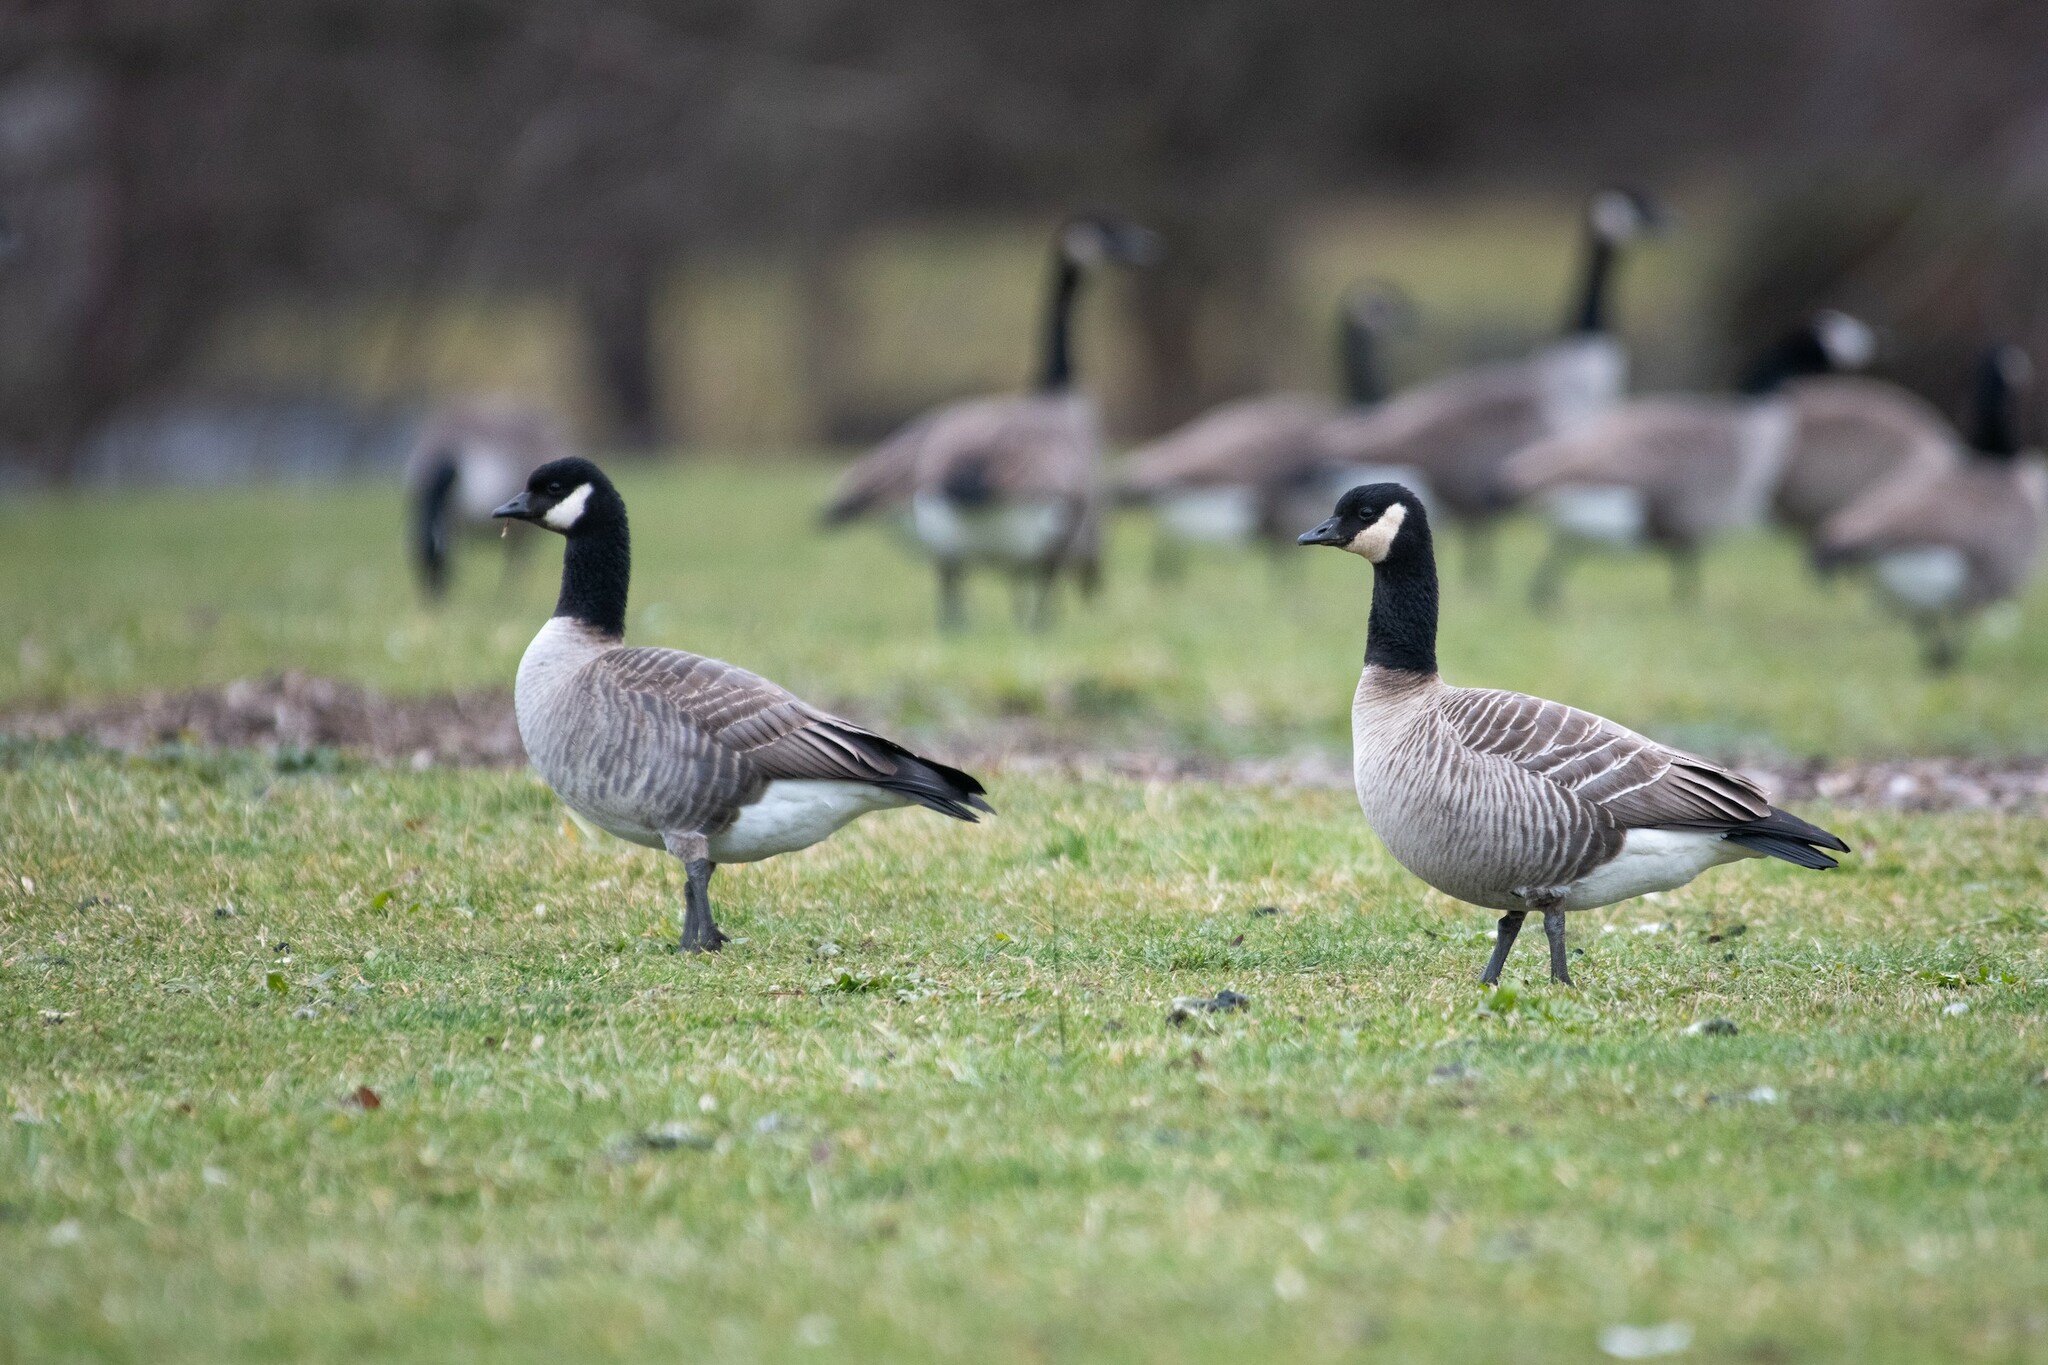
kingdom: Animalia
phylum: Chordata
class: Aves
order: Anseriformes
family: Anatidae
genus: Branta
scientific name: Branta hutchinsii
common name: Cackling goose
